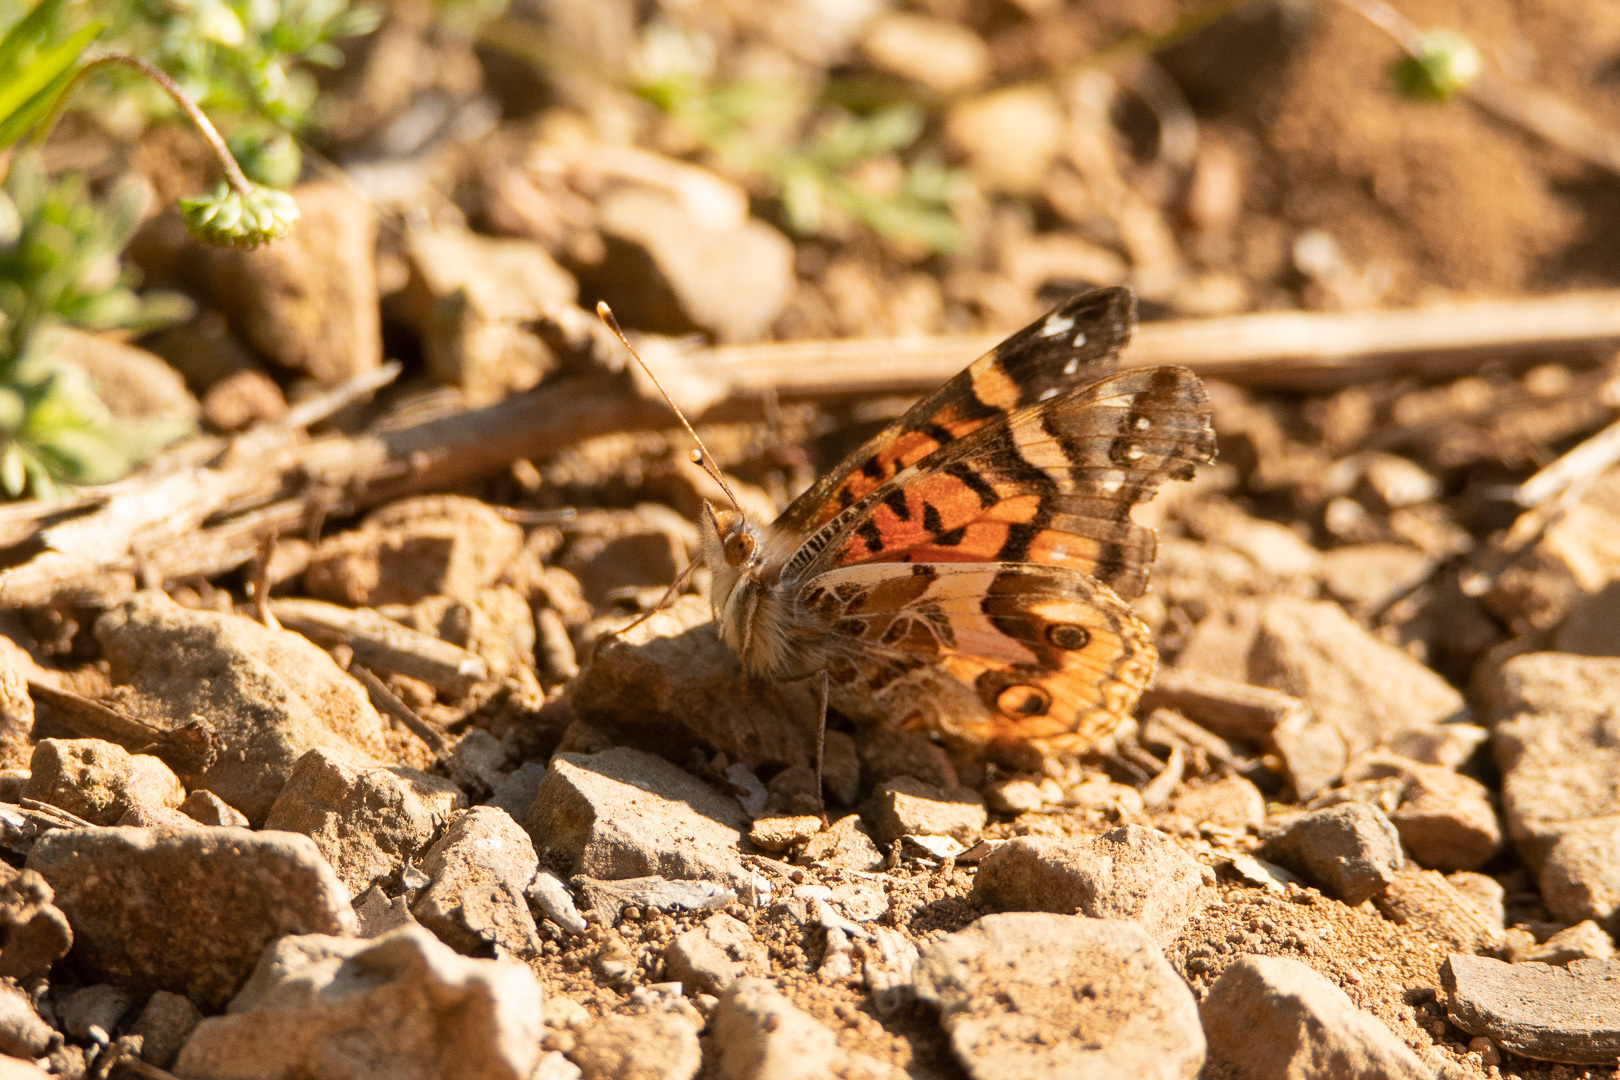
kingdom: Animalia
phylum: Arthropoda
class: Insecta
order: Lepidoptera
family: Nymphalidae
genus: Vanessa
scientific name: Vanessa terpsichore
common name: Chilean lady
